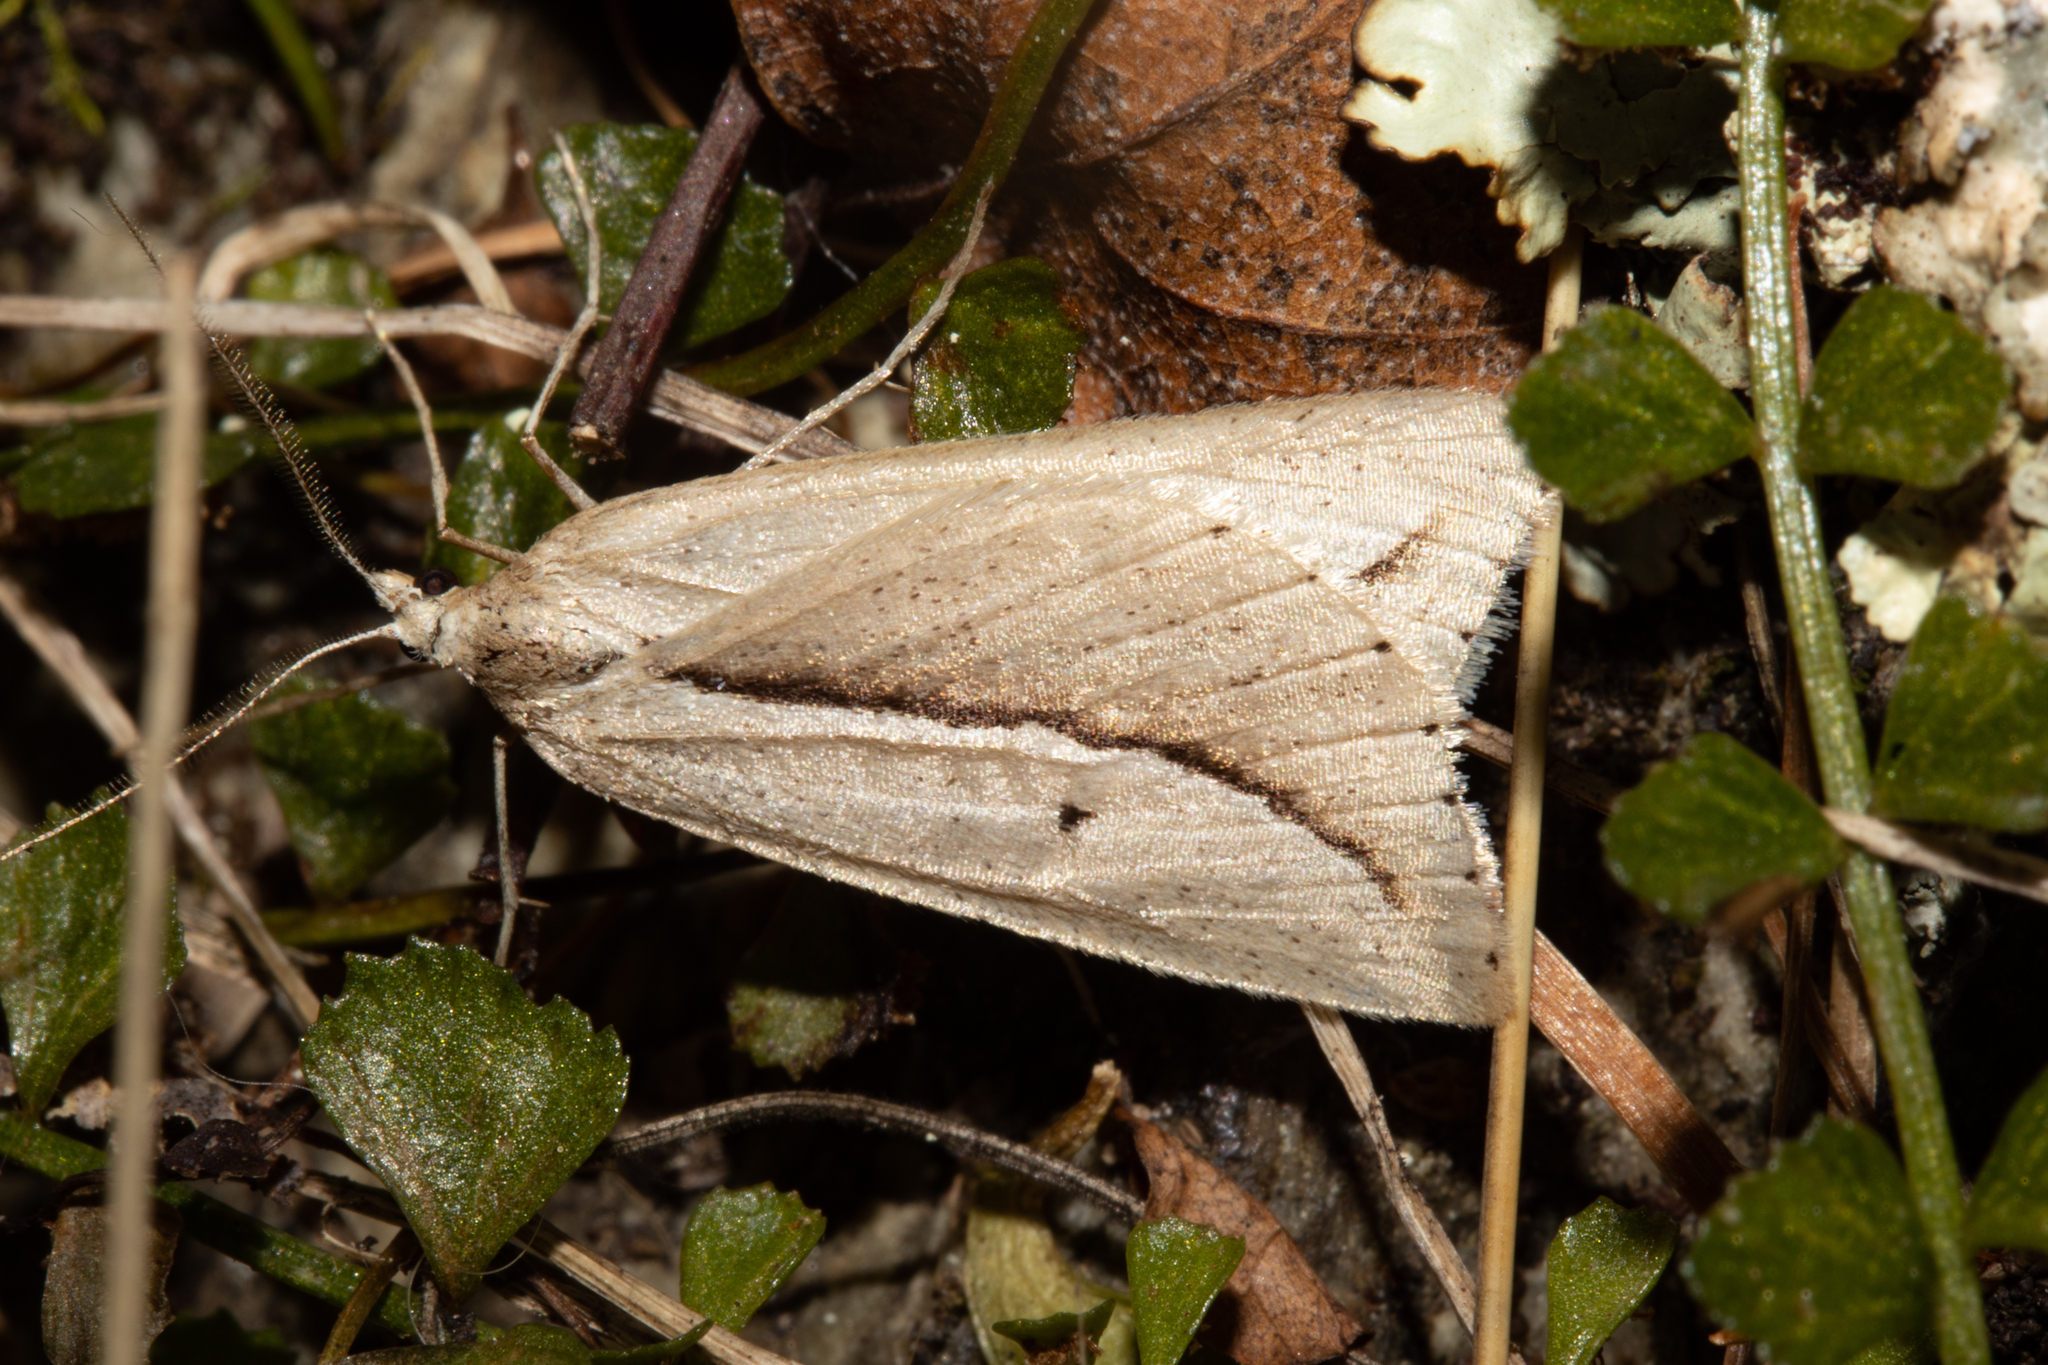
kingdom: Animalia
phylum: Arthropoda
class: Insecta
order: Lepidoptera
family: Geometridae
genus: Theoxena
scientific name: Theoxena scissaria
